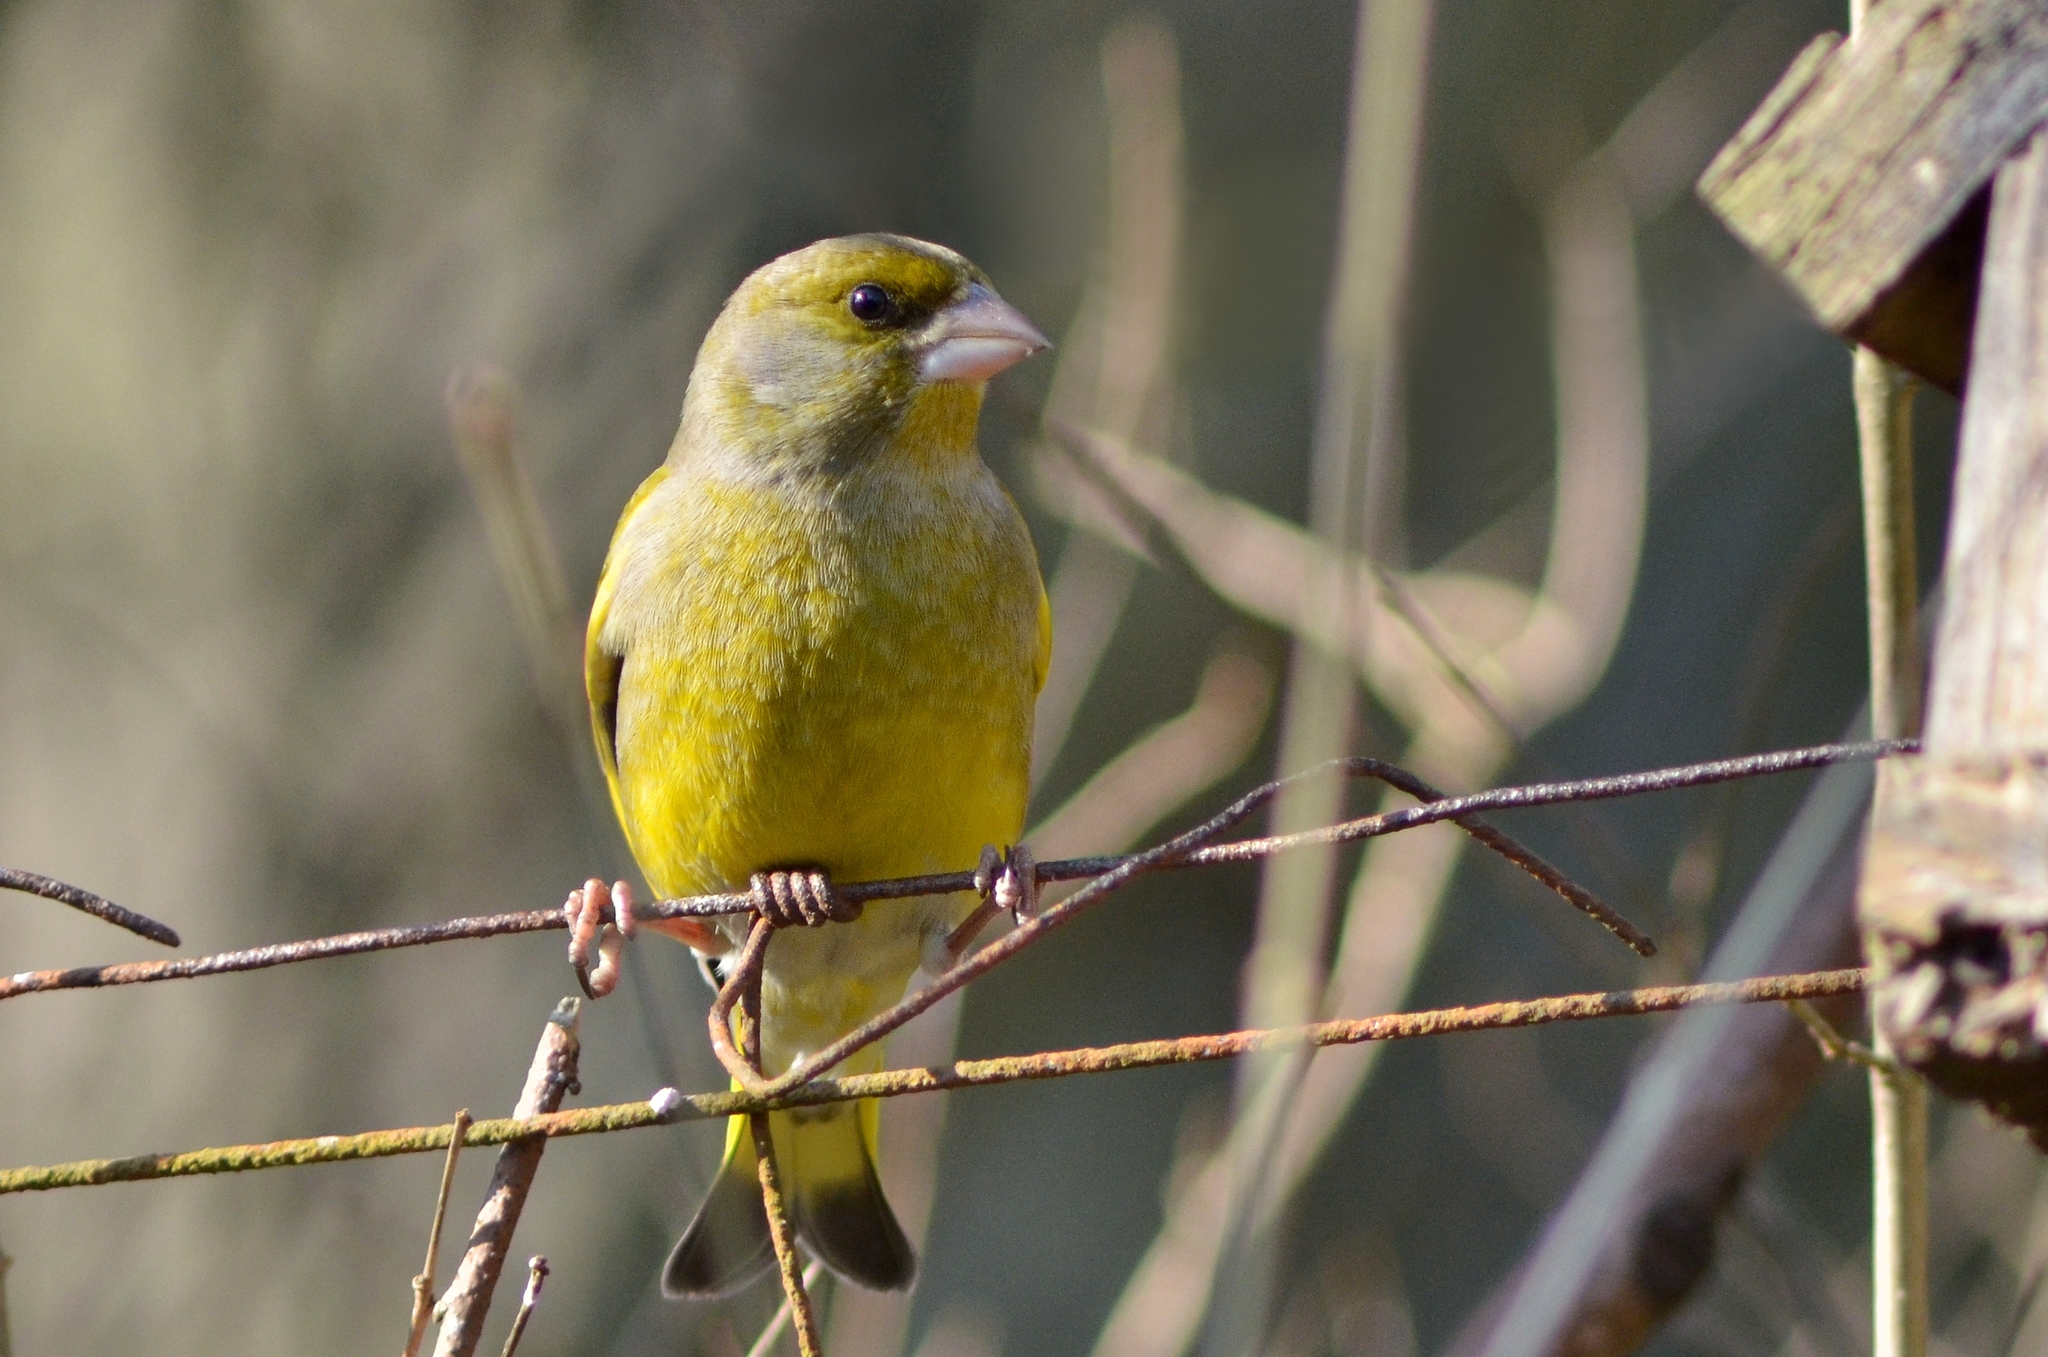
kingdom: Plantae
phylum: Tracheophyta
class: Liliopsida
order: Poales
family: Poaceae
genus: Chloris
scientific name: Chloris chloris
